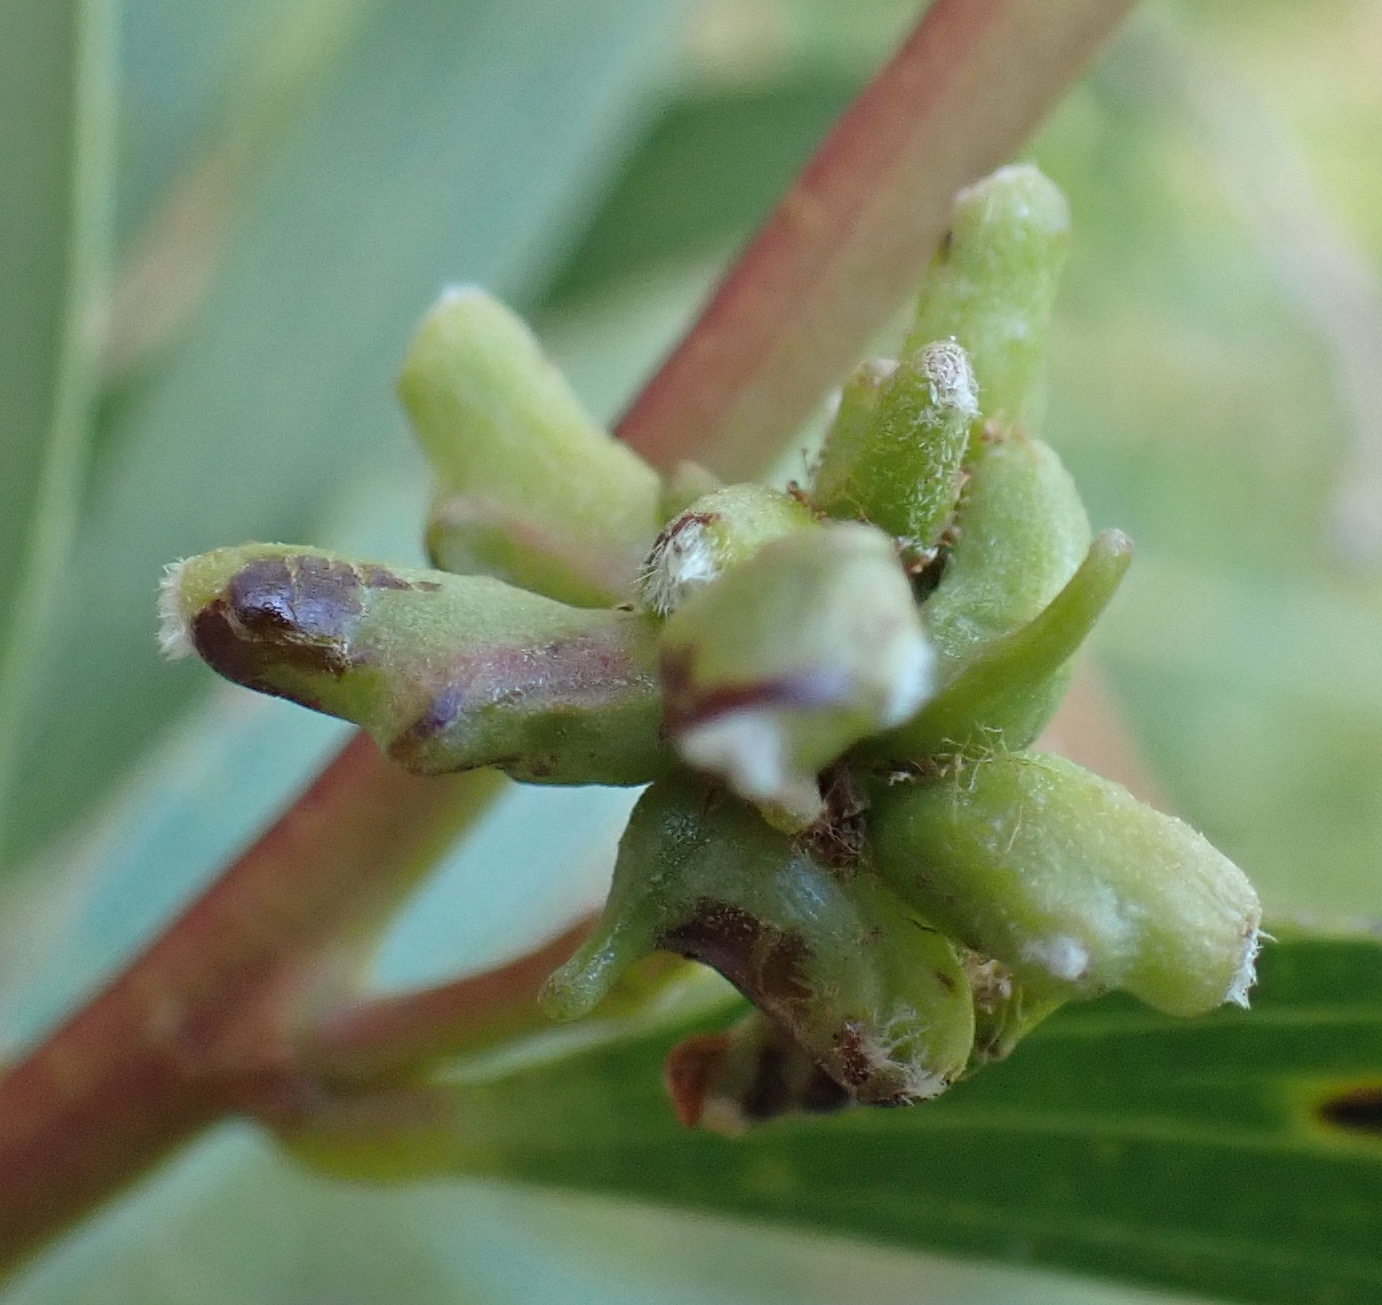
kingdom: Animalia
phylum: Arthropoda
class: Insecta
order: Diptera
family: Cecidomyiidae
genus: Dasineura
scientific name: Dasineura dielsi
